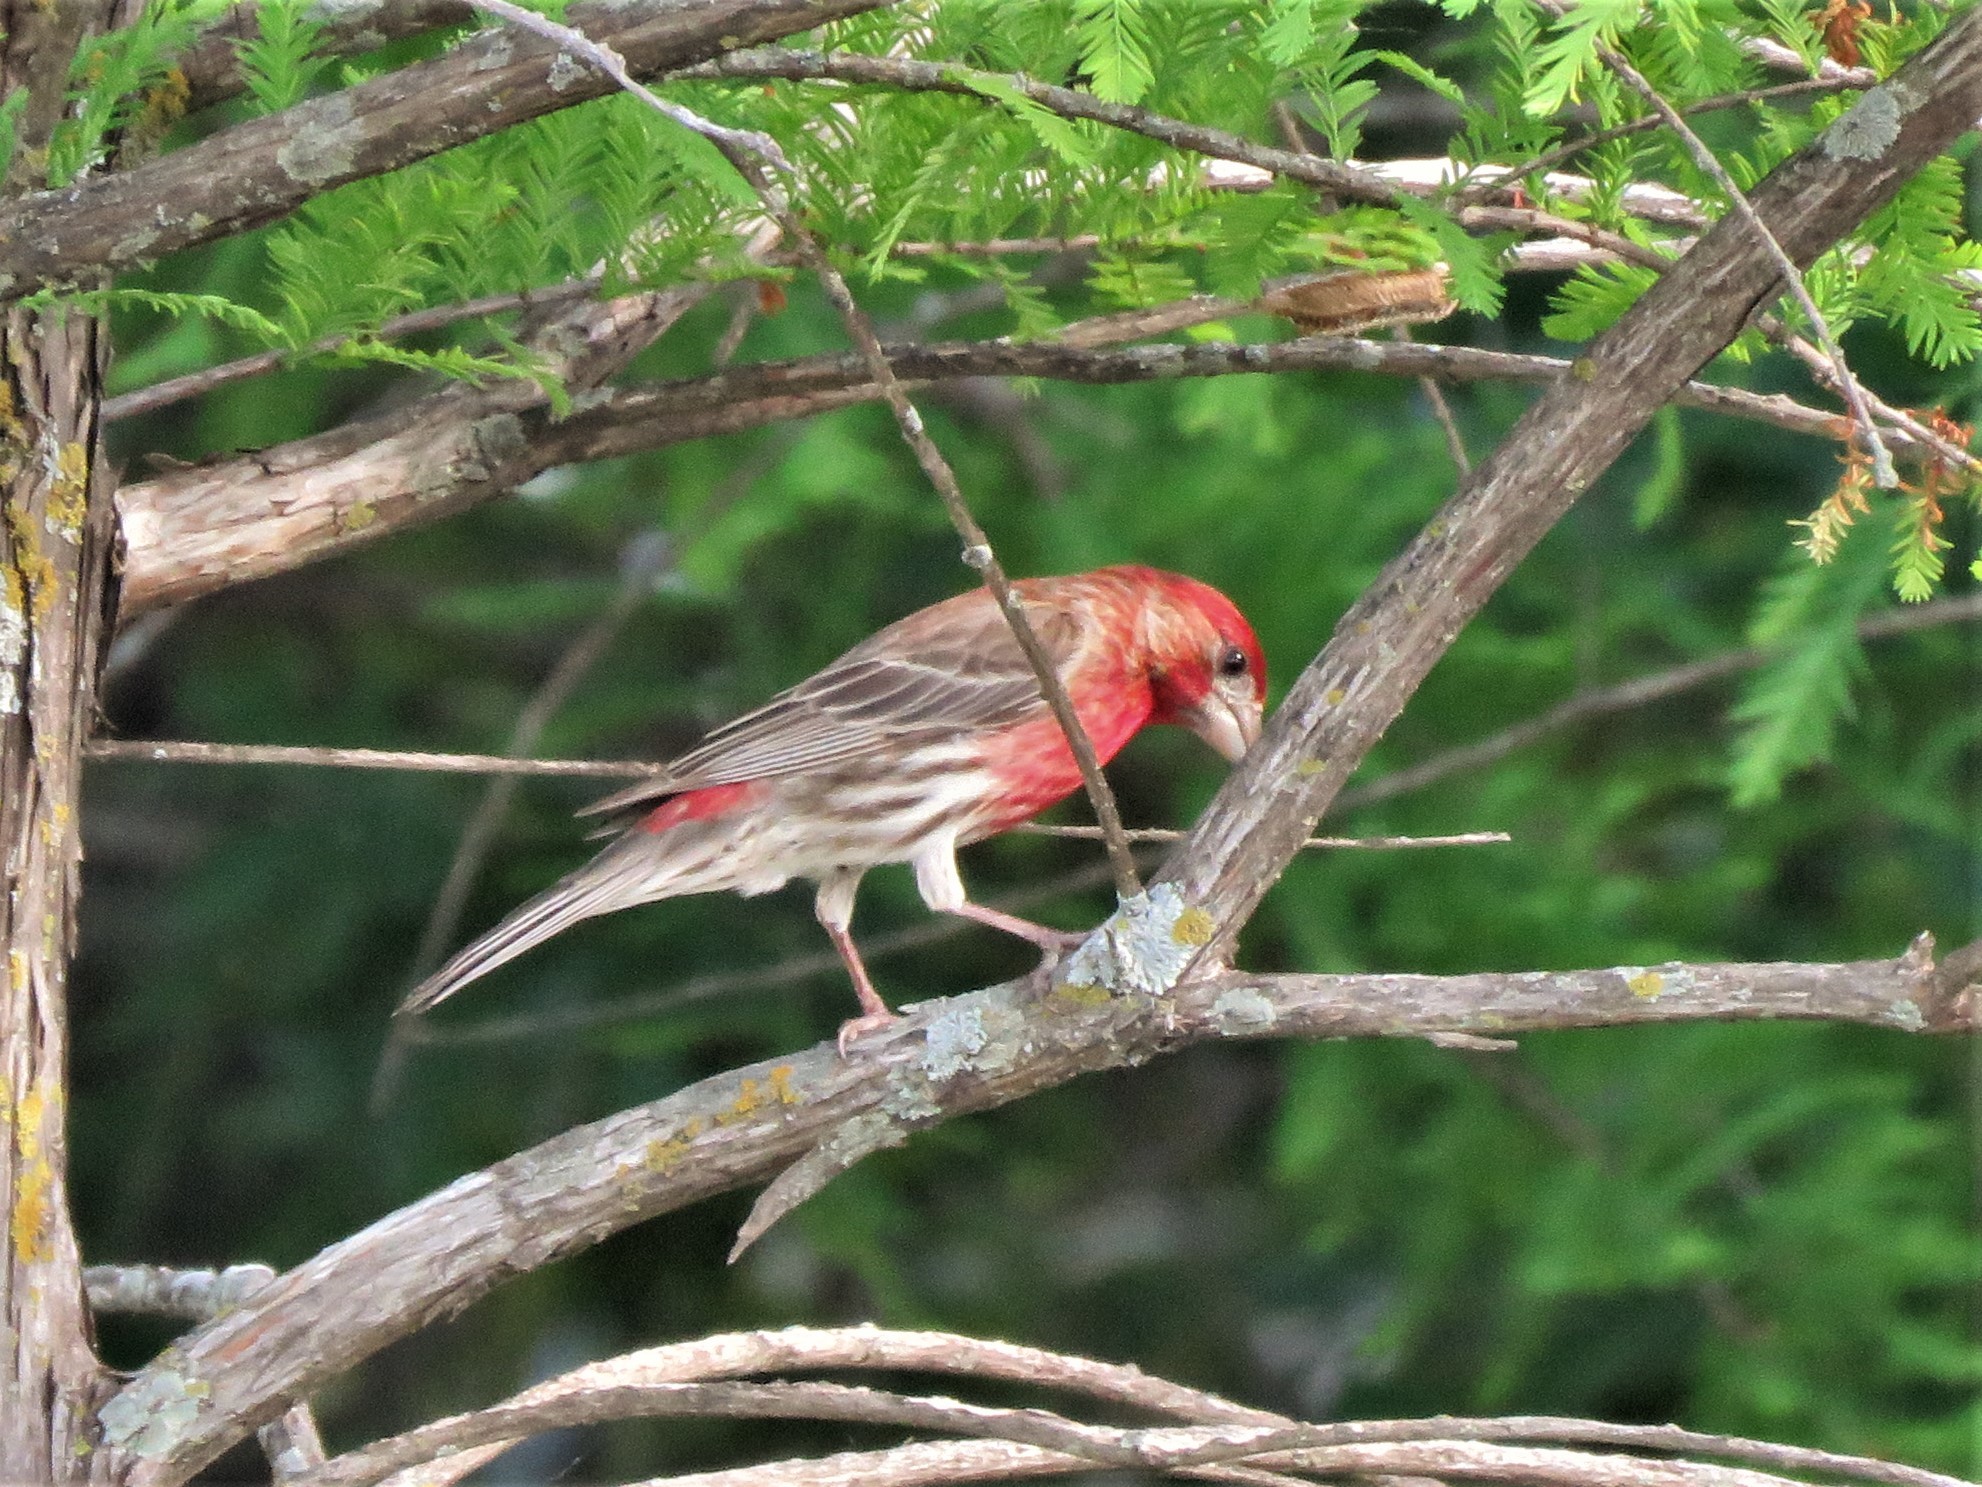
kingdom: Animalia
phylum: Chordata
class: Aves
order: Passeriformes
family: Fringillidae
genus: Haemorhous
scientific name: Haemorhous mexicanus
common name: House finch
